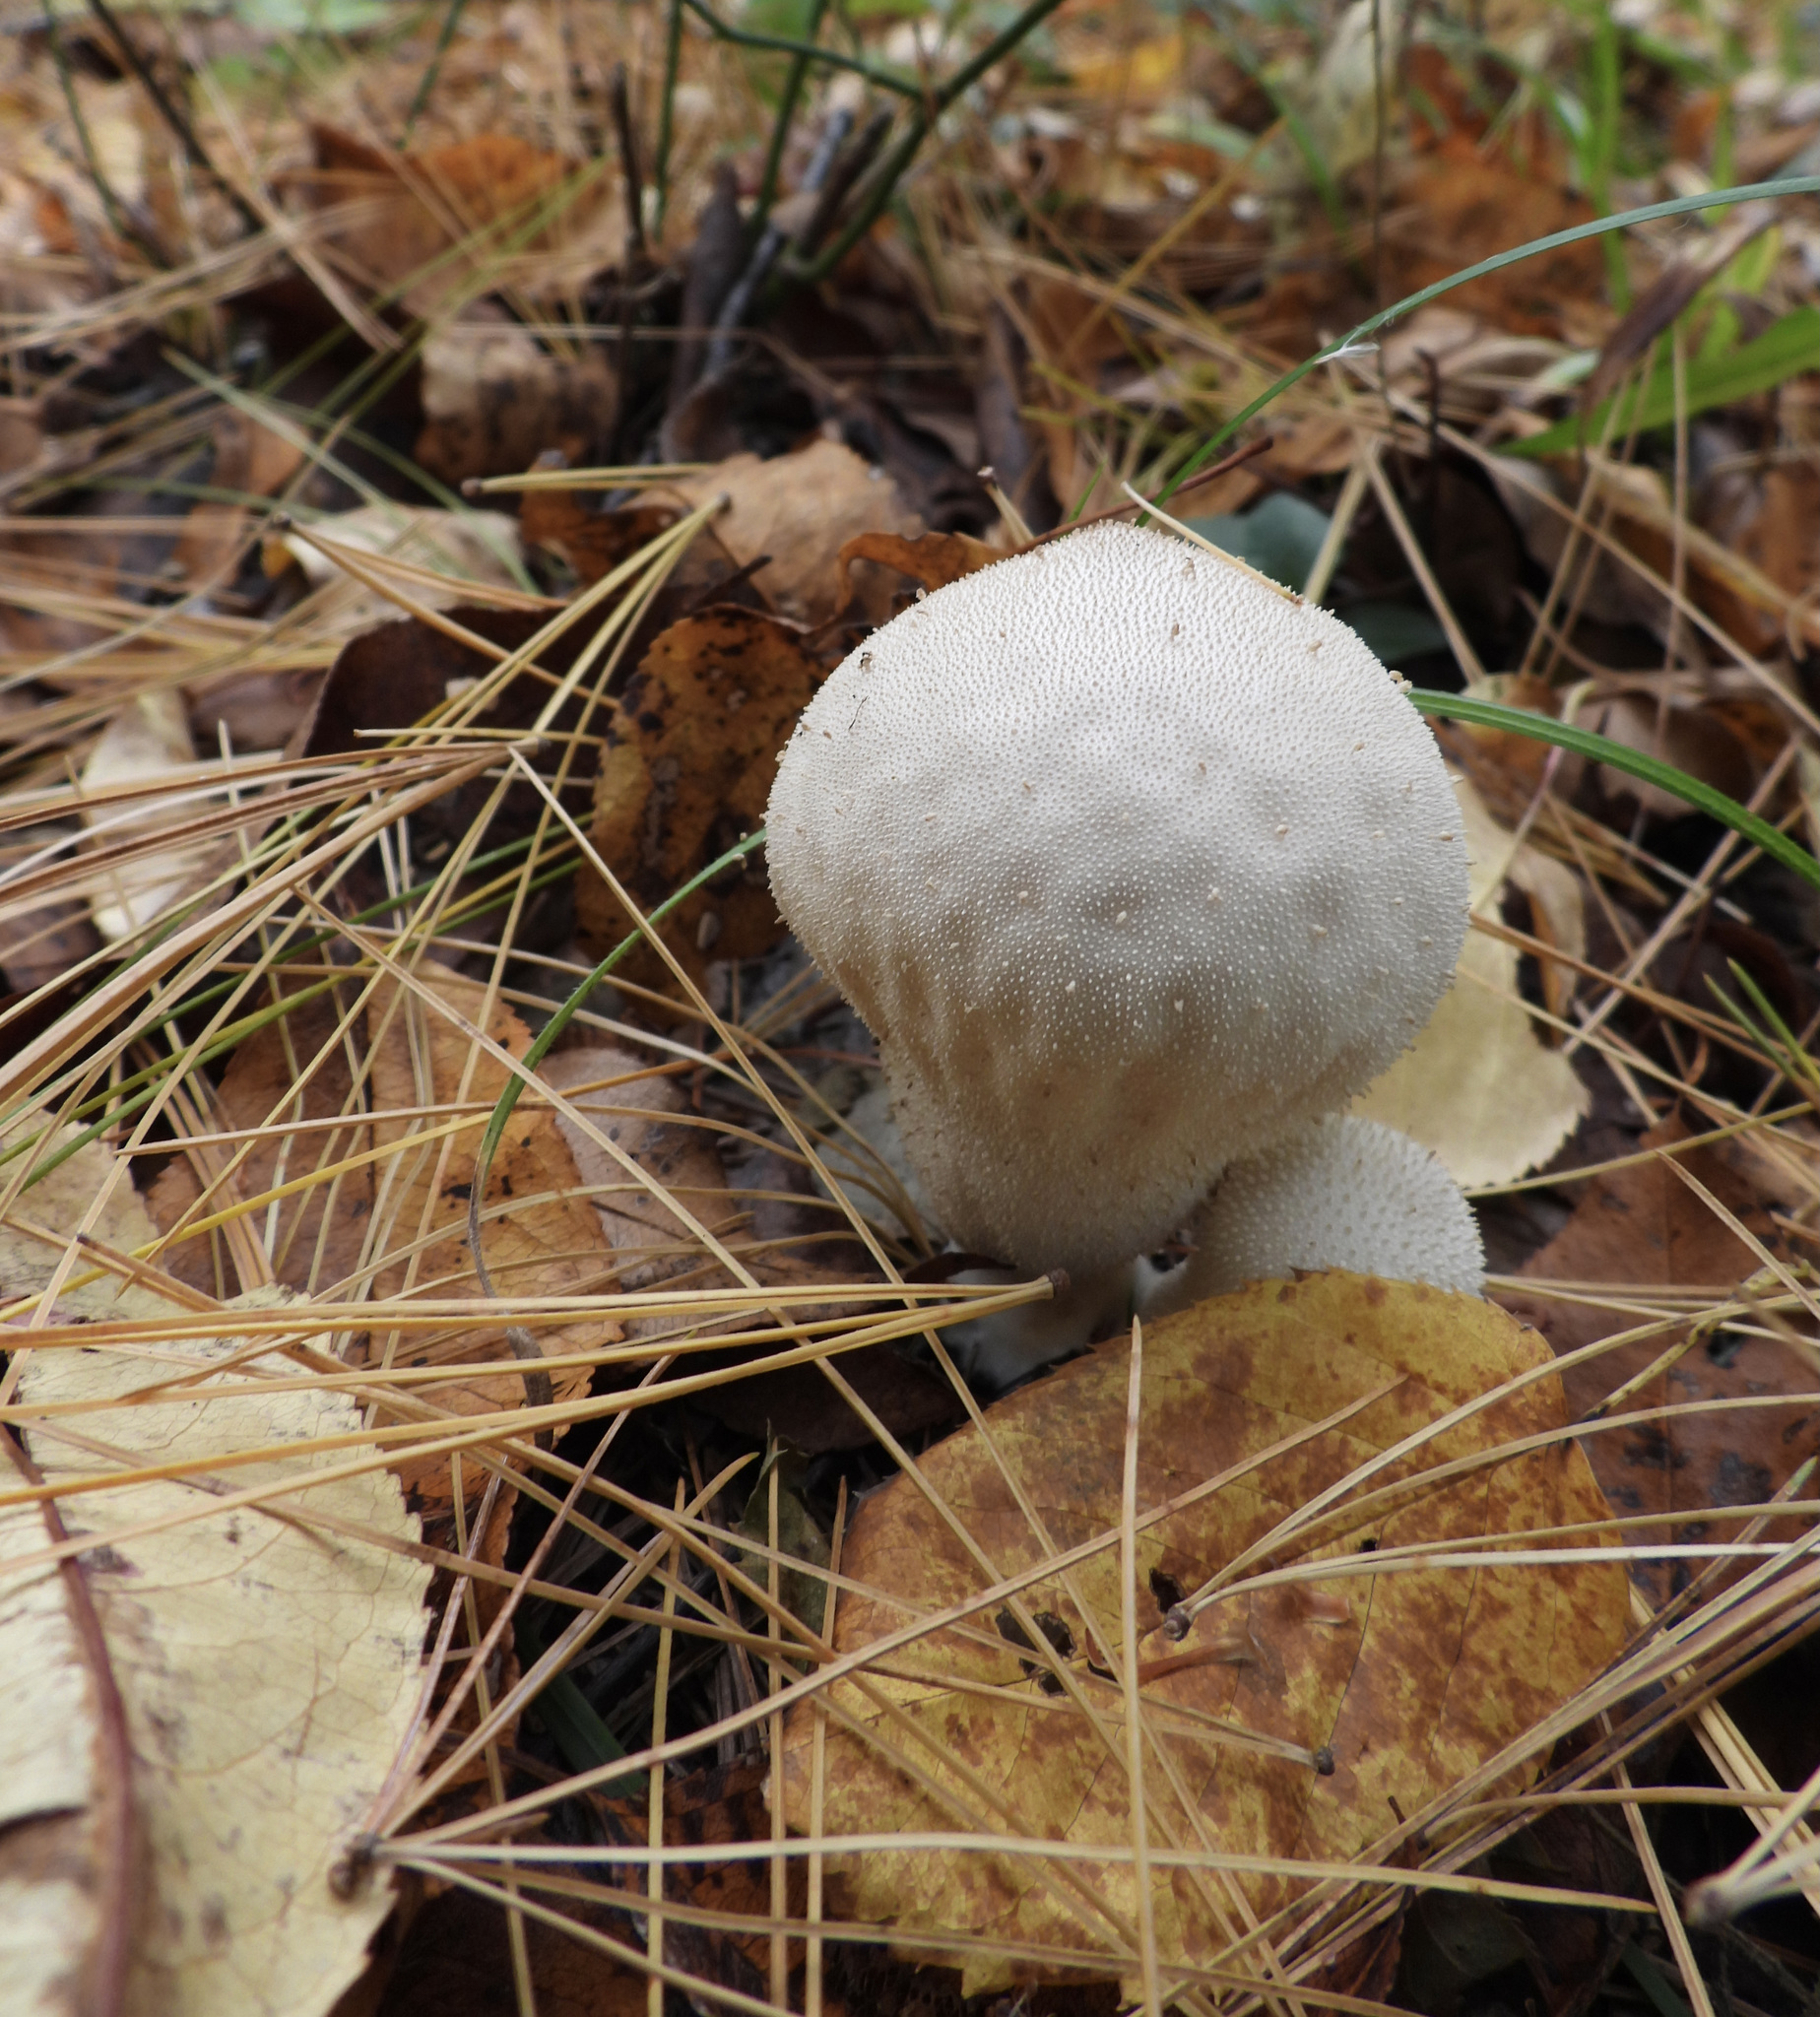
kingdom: Fungi
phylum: Basidiomycota
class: Agaricomycetes
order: Agaricales
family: Lycoperdaceae
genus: Lycoperdon
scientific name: Lycoperdon perlatum
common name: Common puffball
